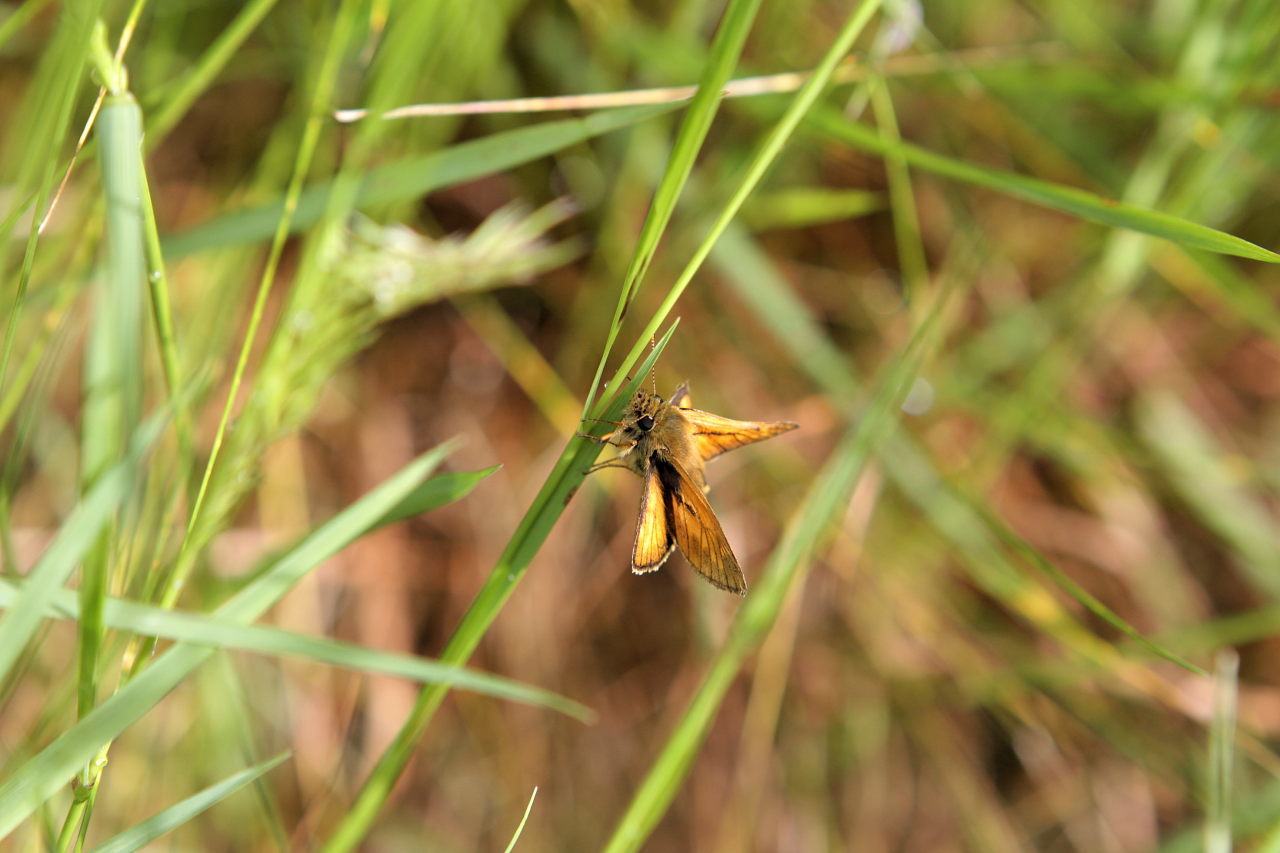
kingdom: Animalia
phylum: Arthropoda
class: Insecta
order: Lepidoptera
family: Hesperiidae
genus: Ochlodes
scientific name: Ochlodes venata
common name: Large skipper
